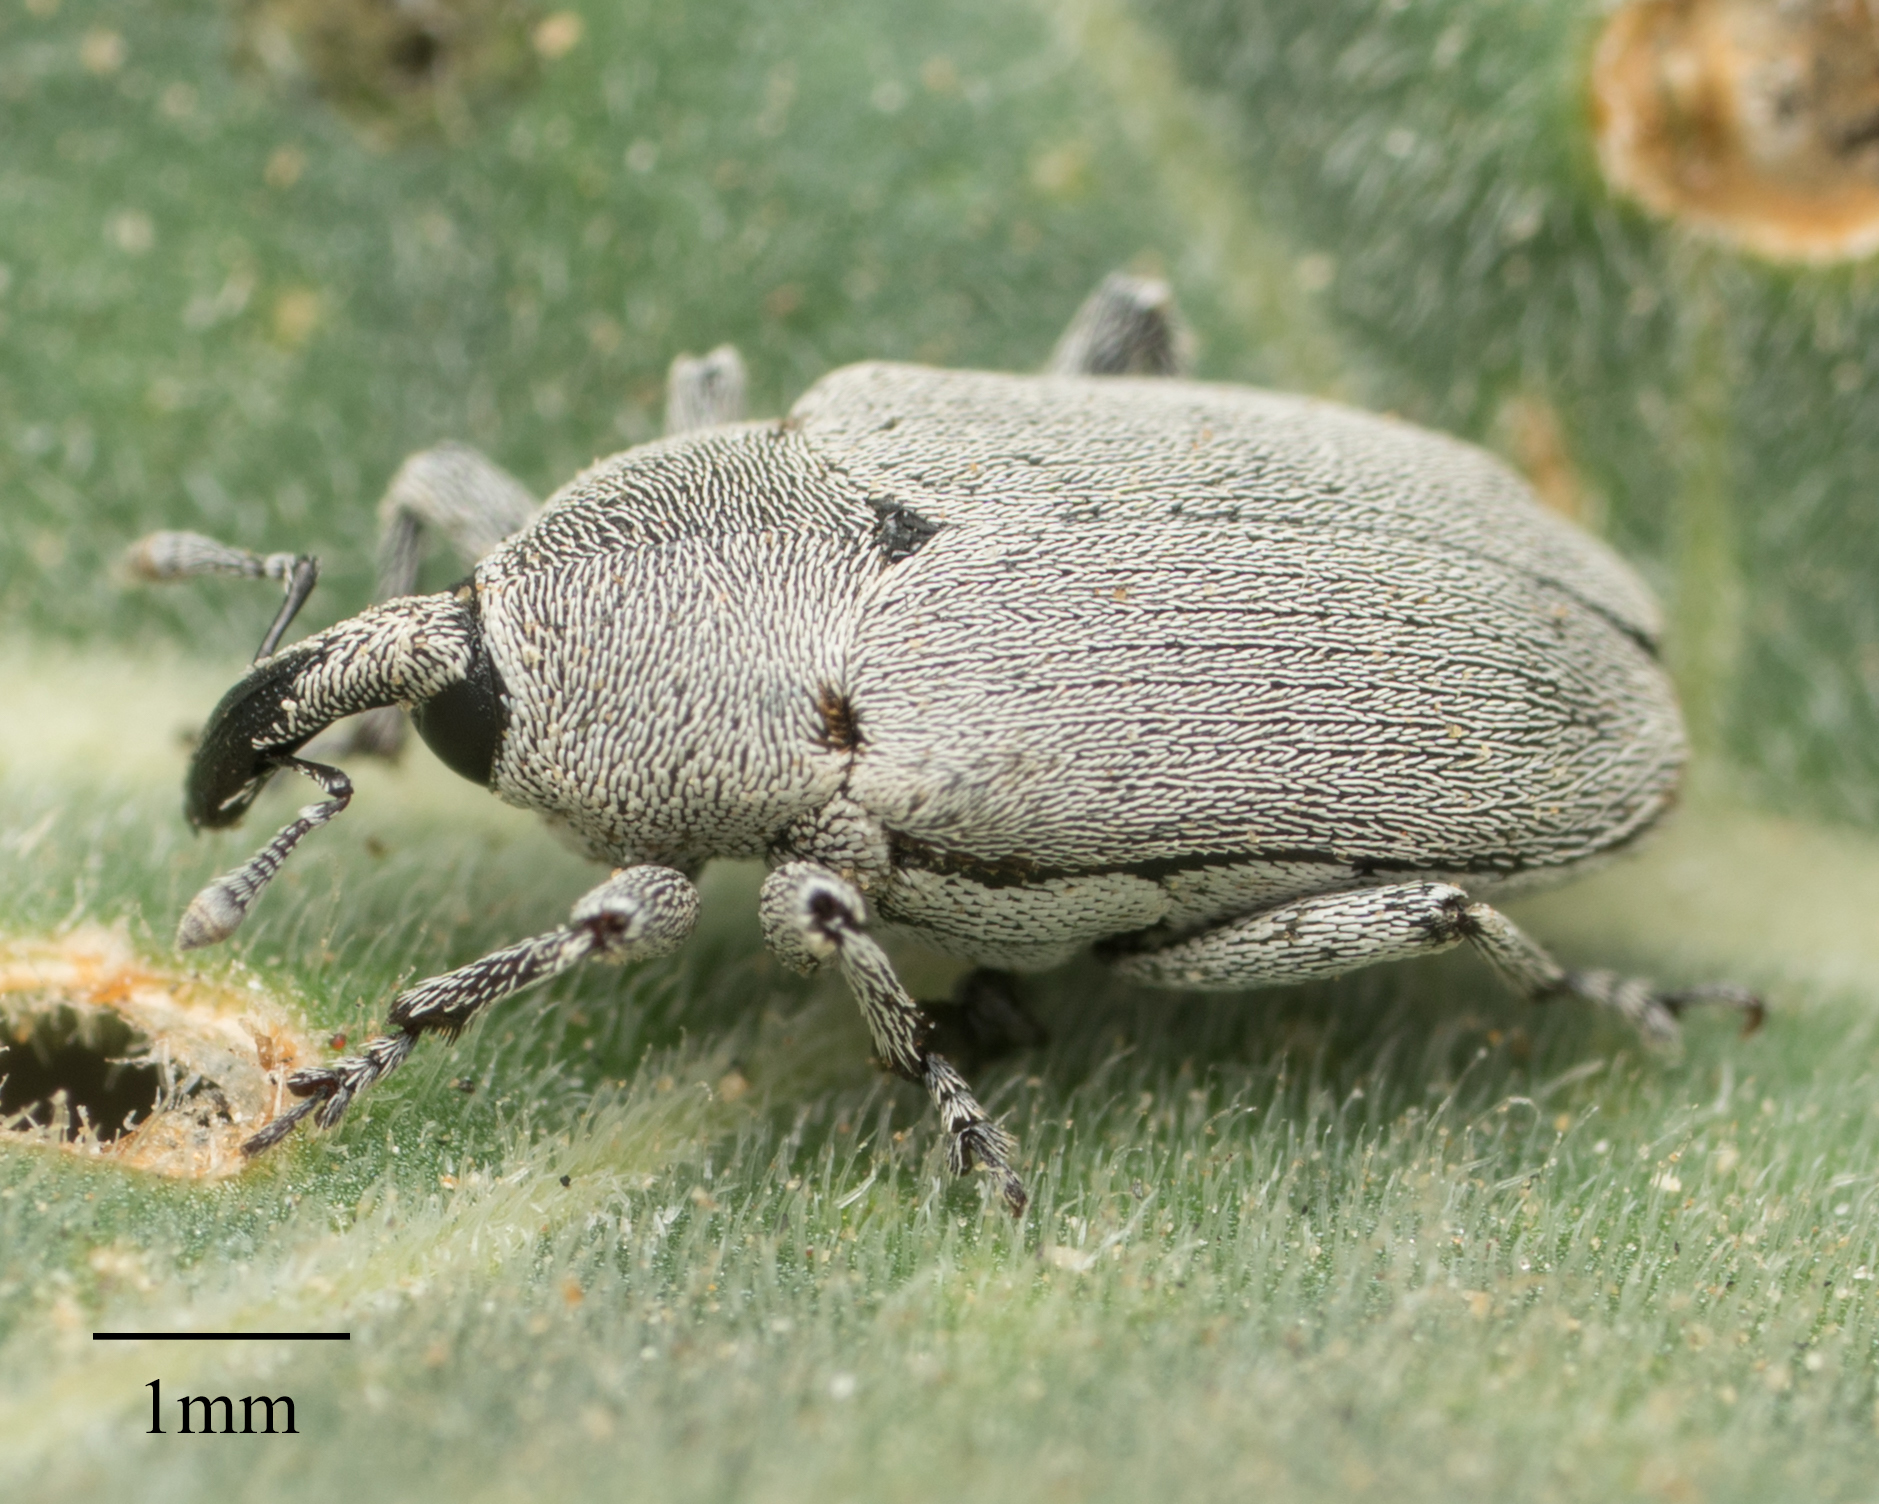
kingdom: Animalia
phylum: Arthropoda
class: Insecta
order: Coleoptera
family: Curculionidae
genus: Trichobaris
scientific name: Trichobaris compacta
